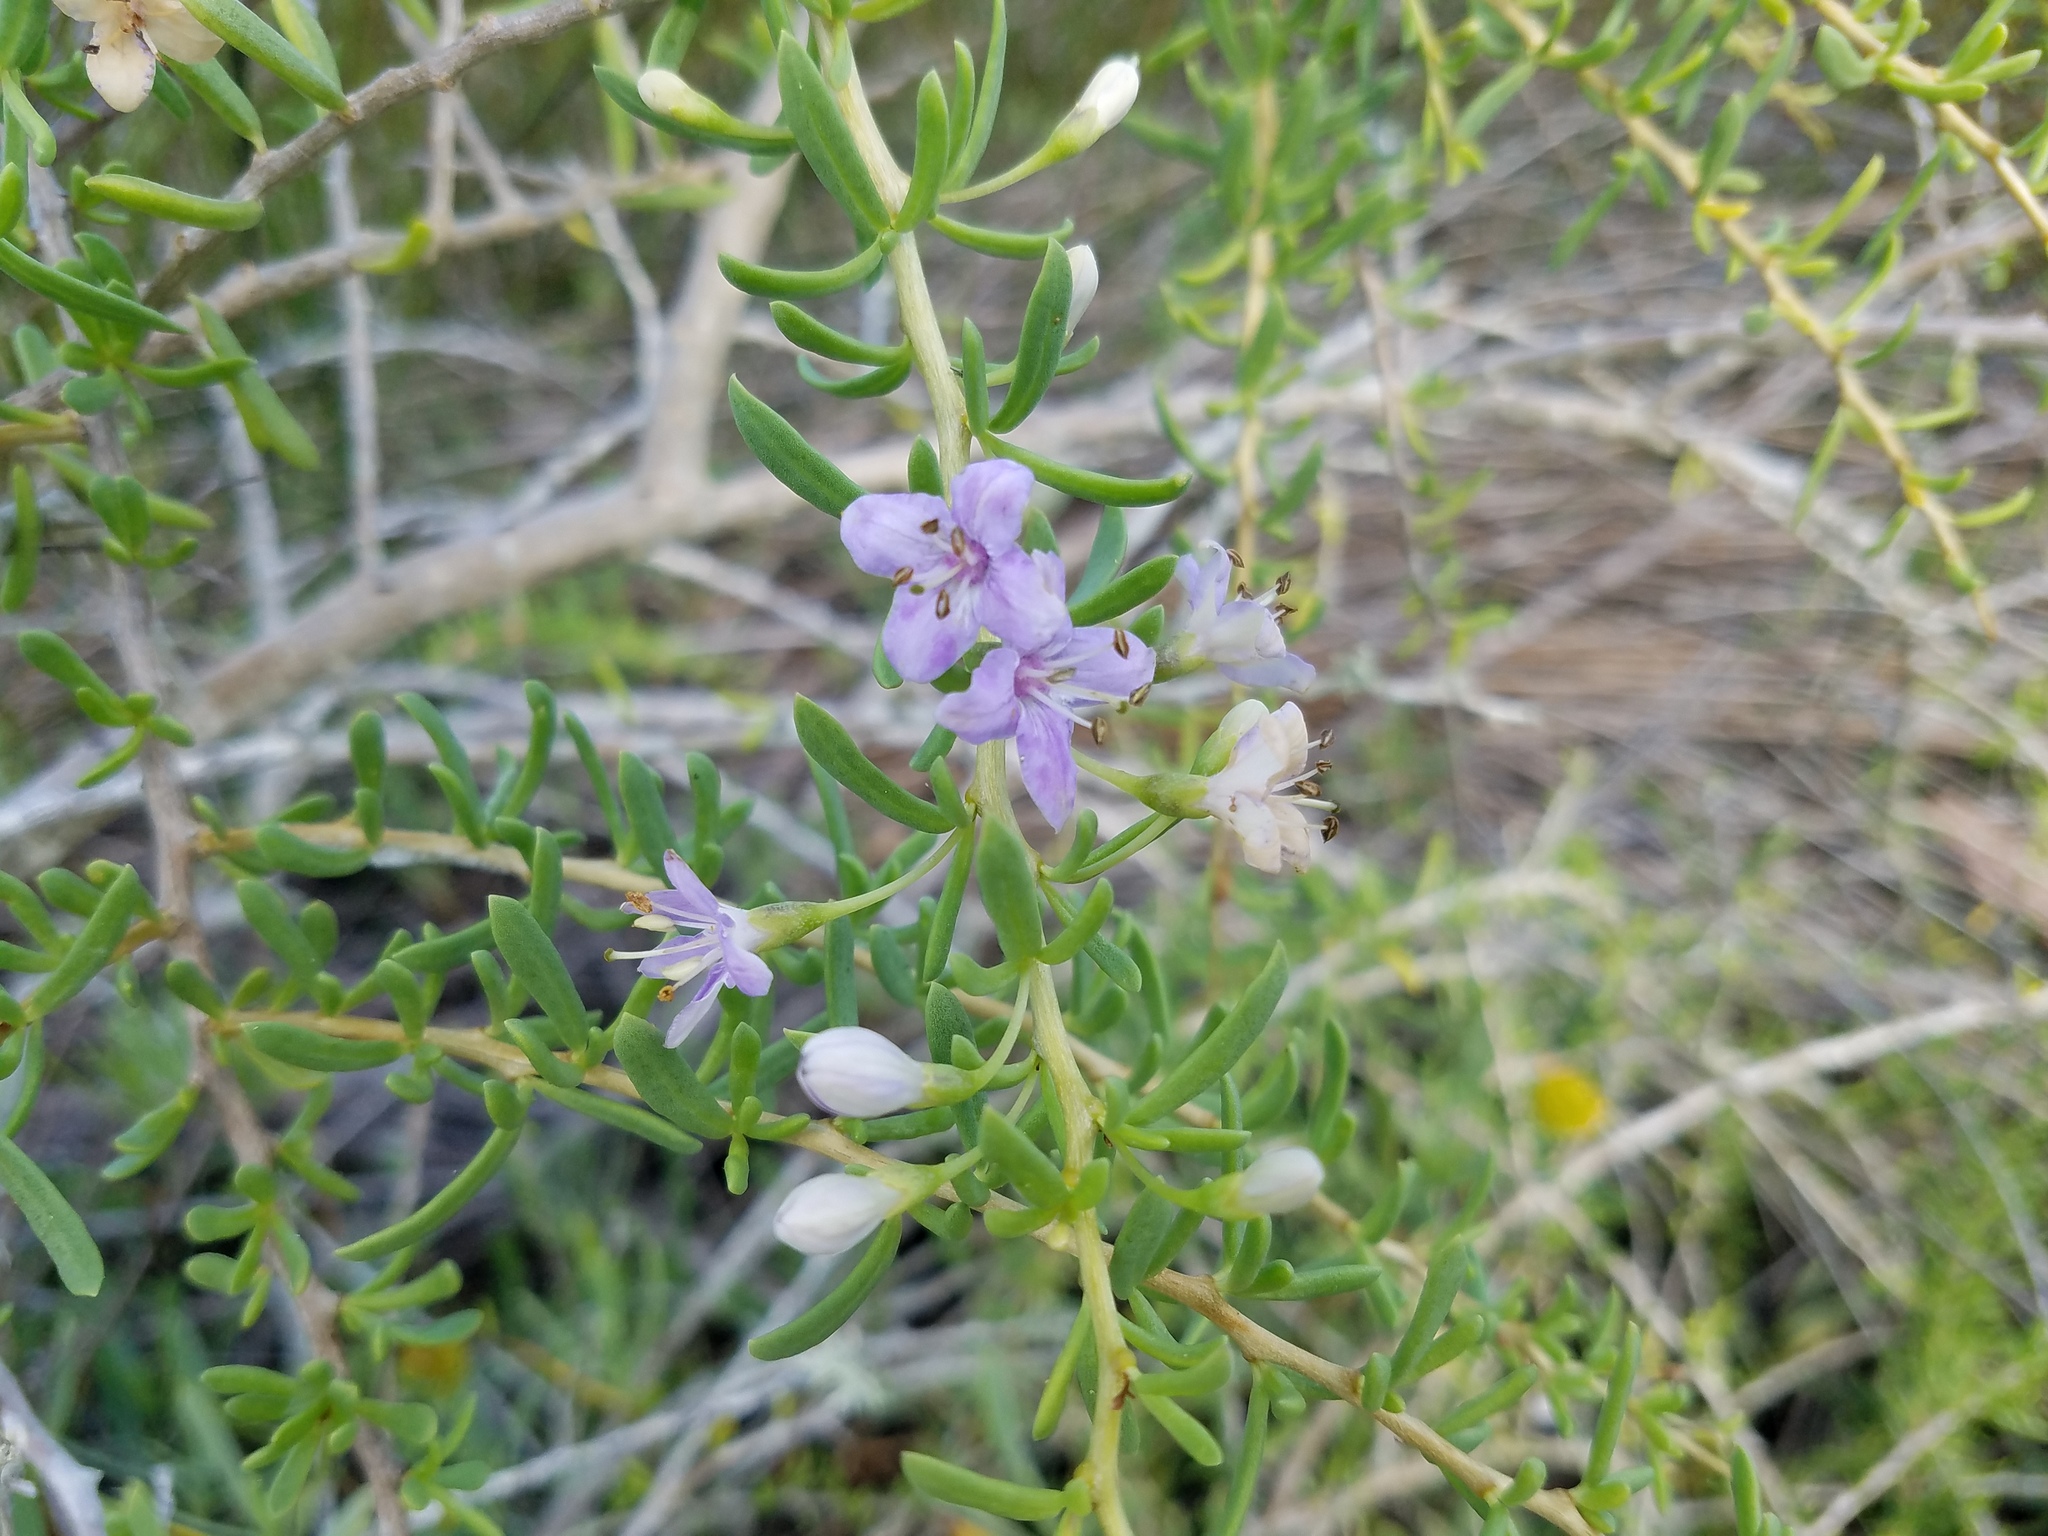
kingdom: Plantae
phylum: Tracheophyta
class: Magnoliopsida
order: Solanales
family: Solanaceae
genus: Lycium
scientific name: Lycium carolinianum
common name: Christmasberry
